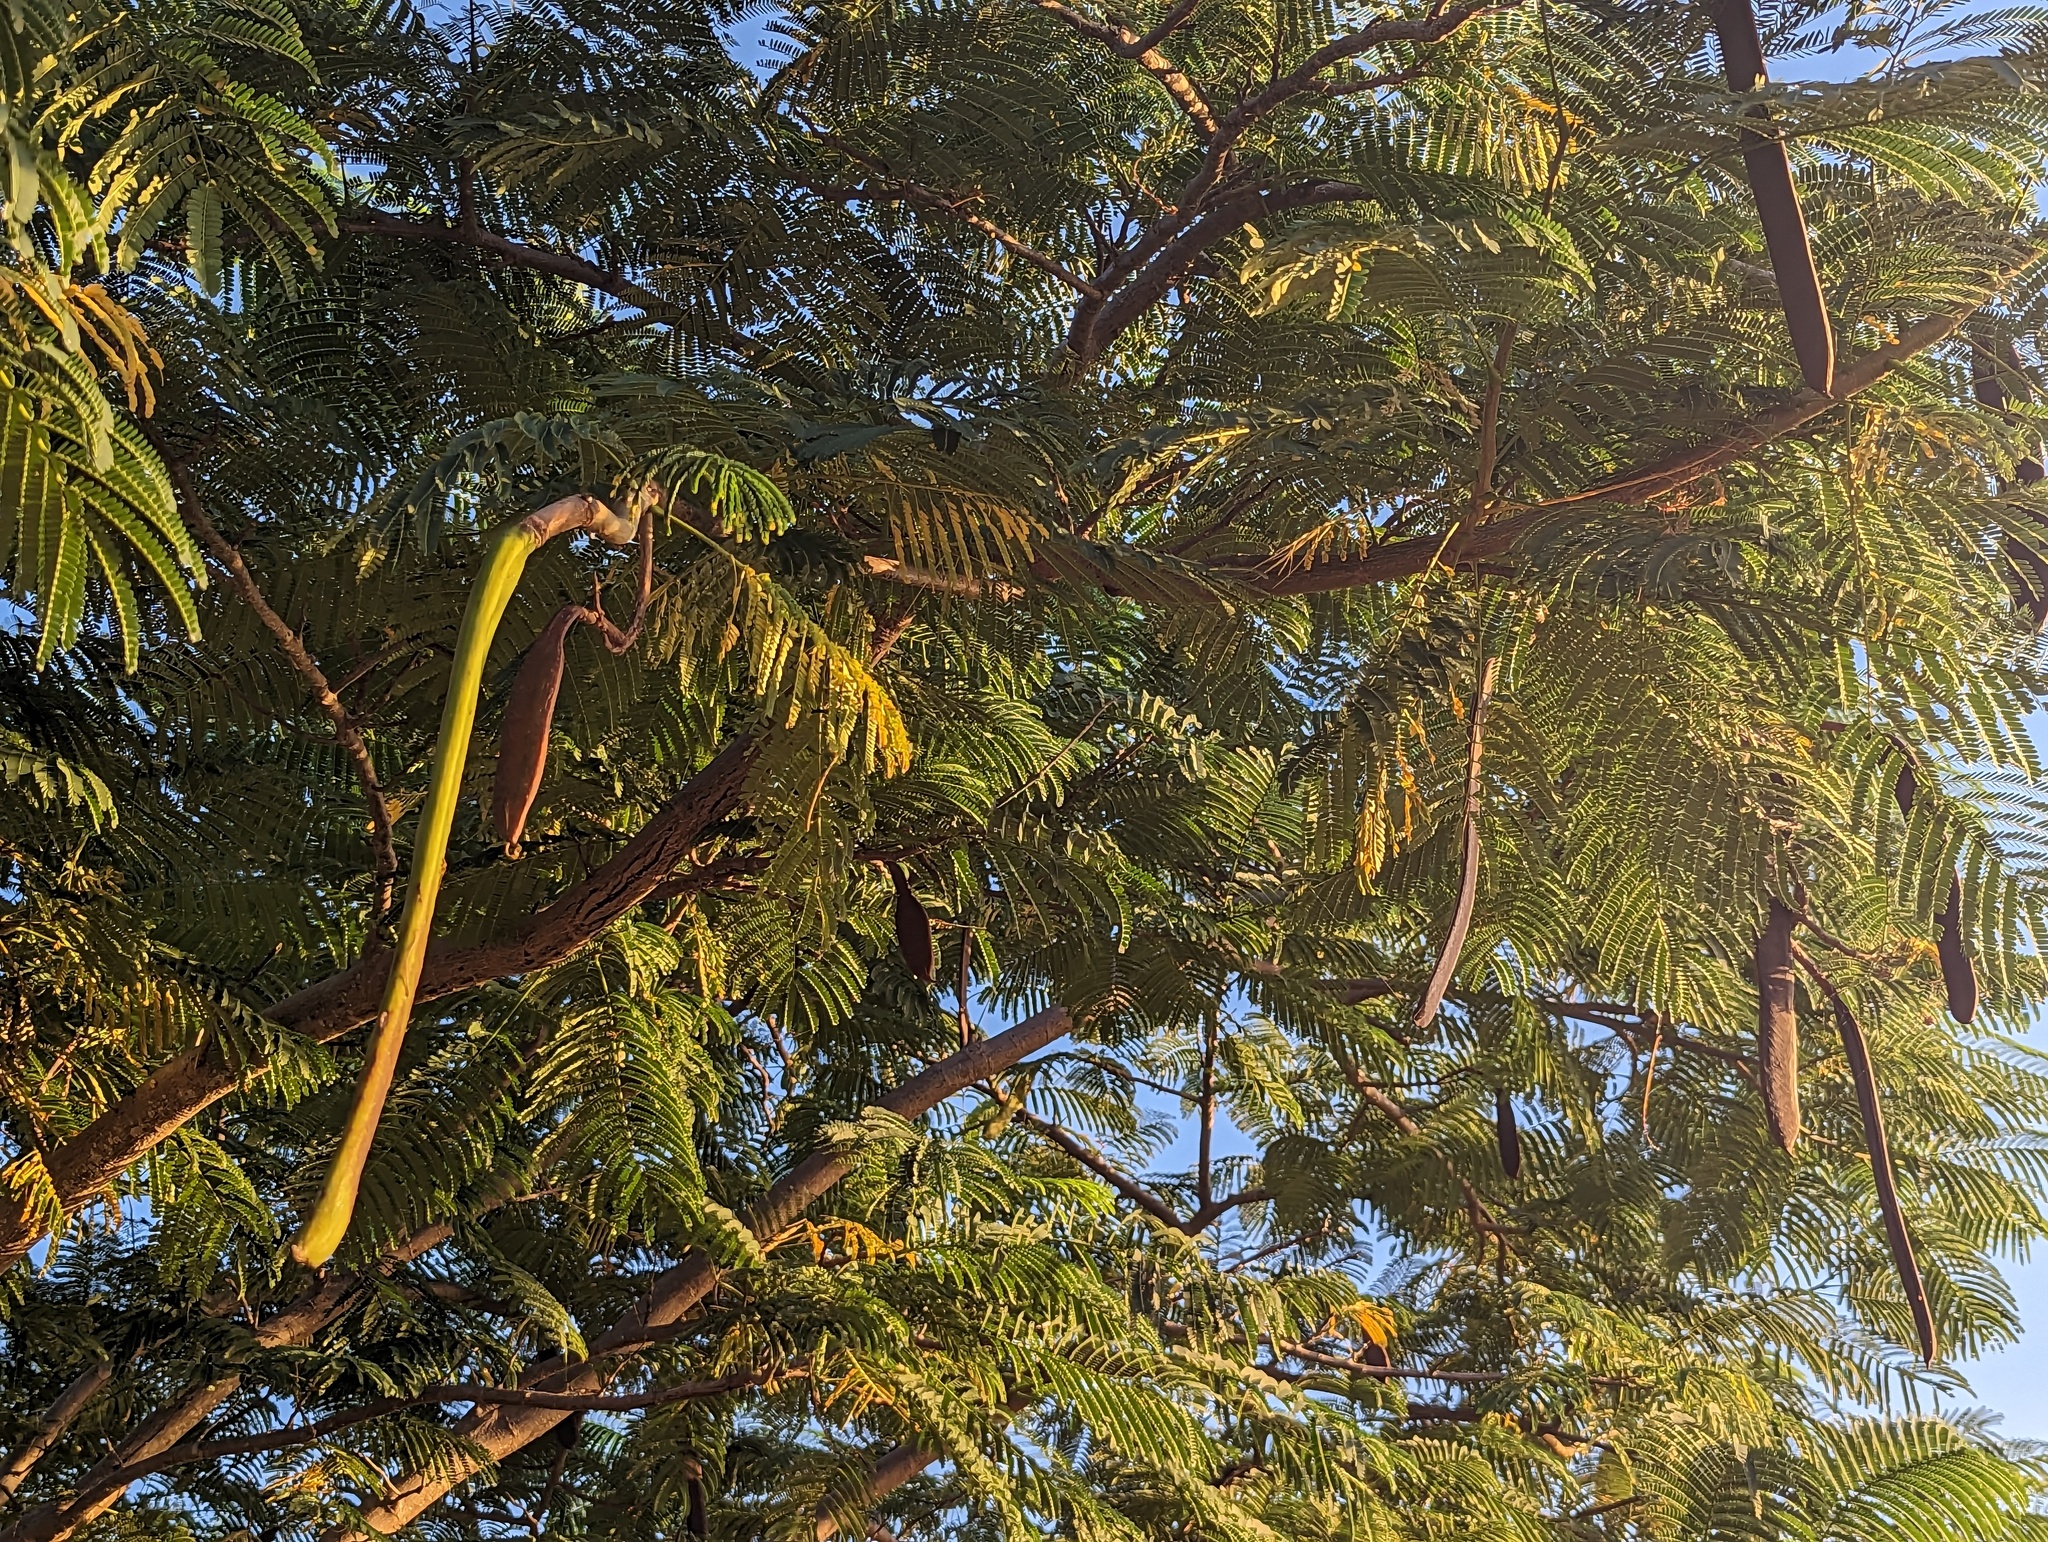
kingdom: Plantae
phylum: Tracheophyta
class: Magnoliopsida
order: Fabales
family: Fabaceae
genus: Delonix
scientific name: Delonix regia
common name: Royal poinciana
